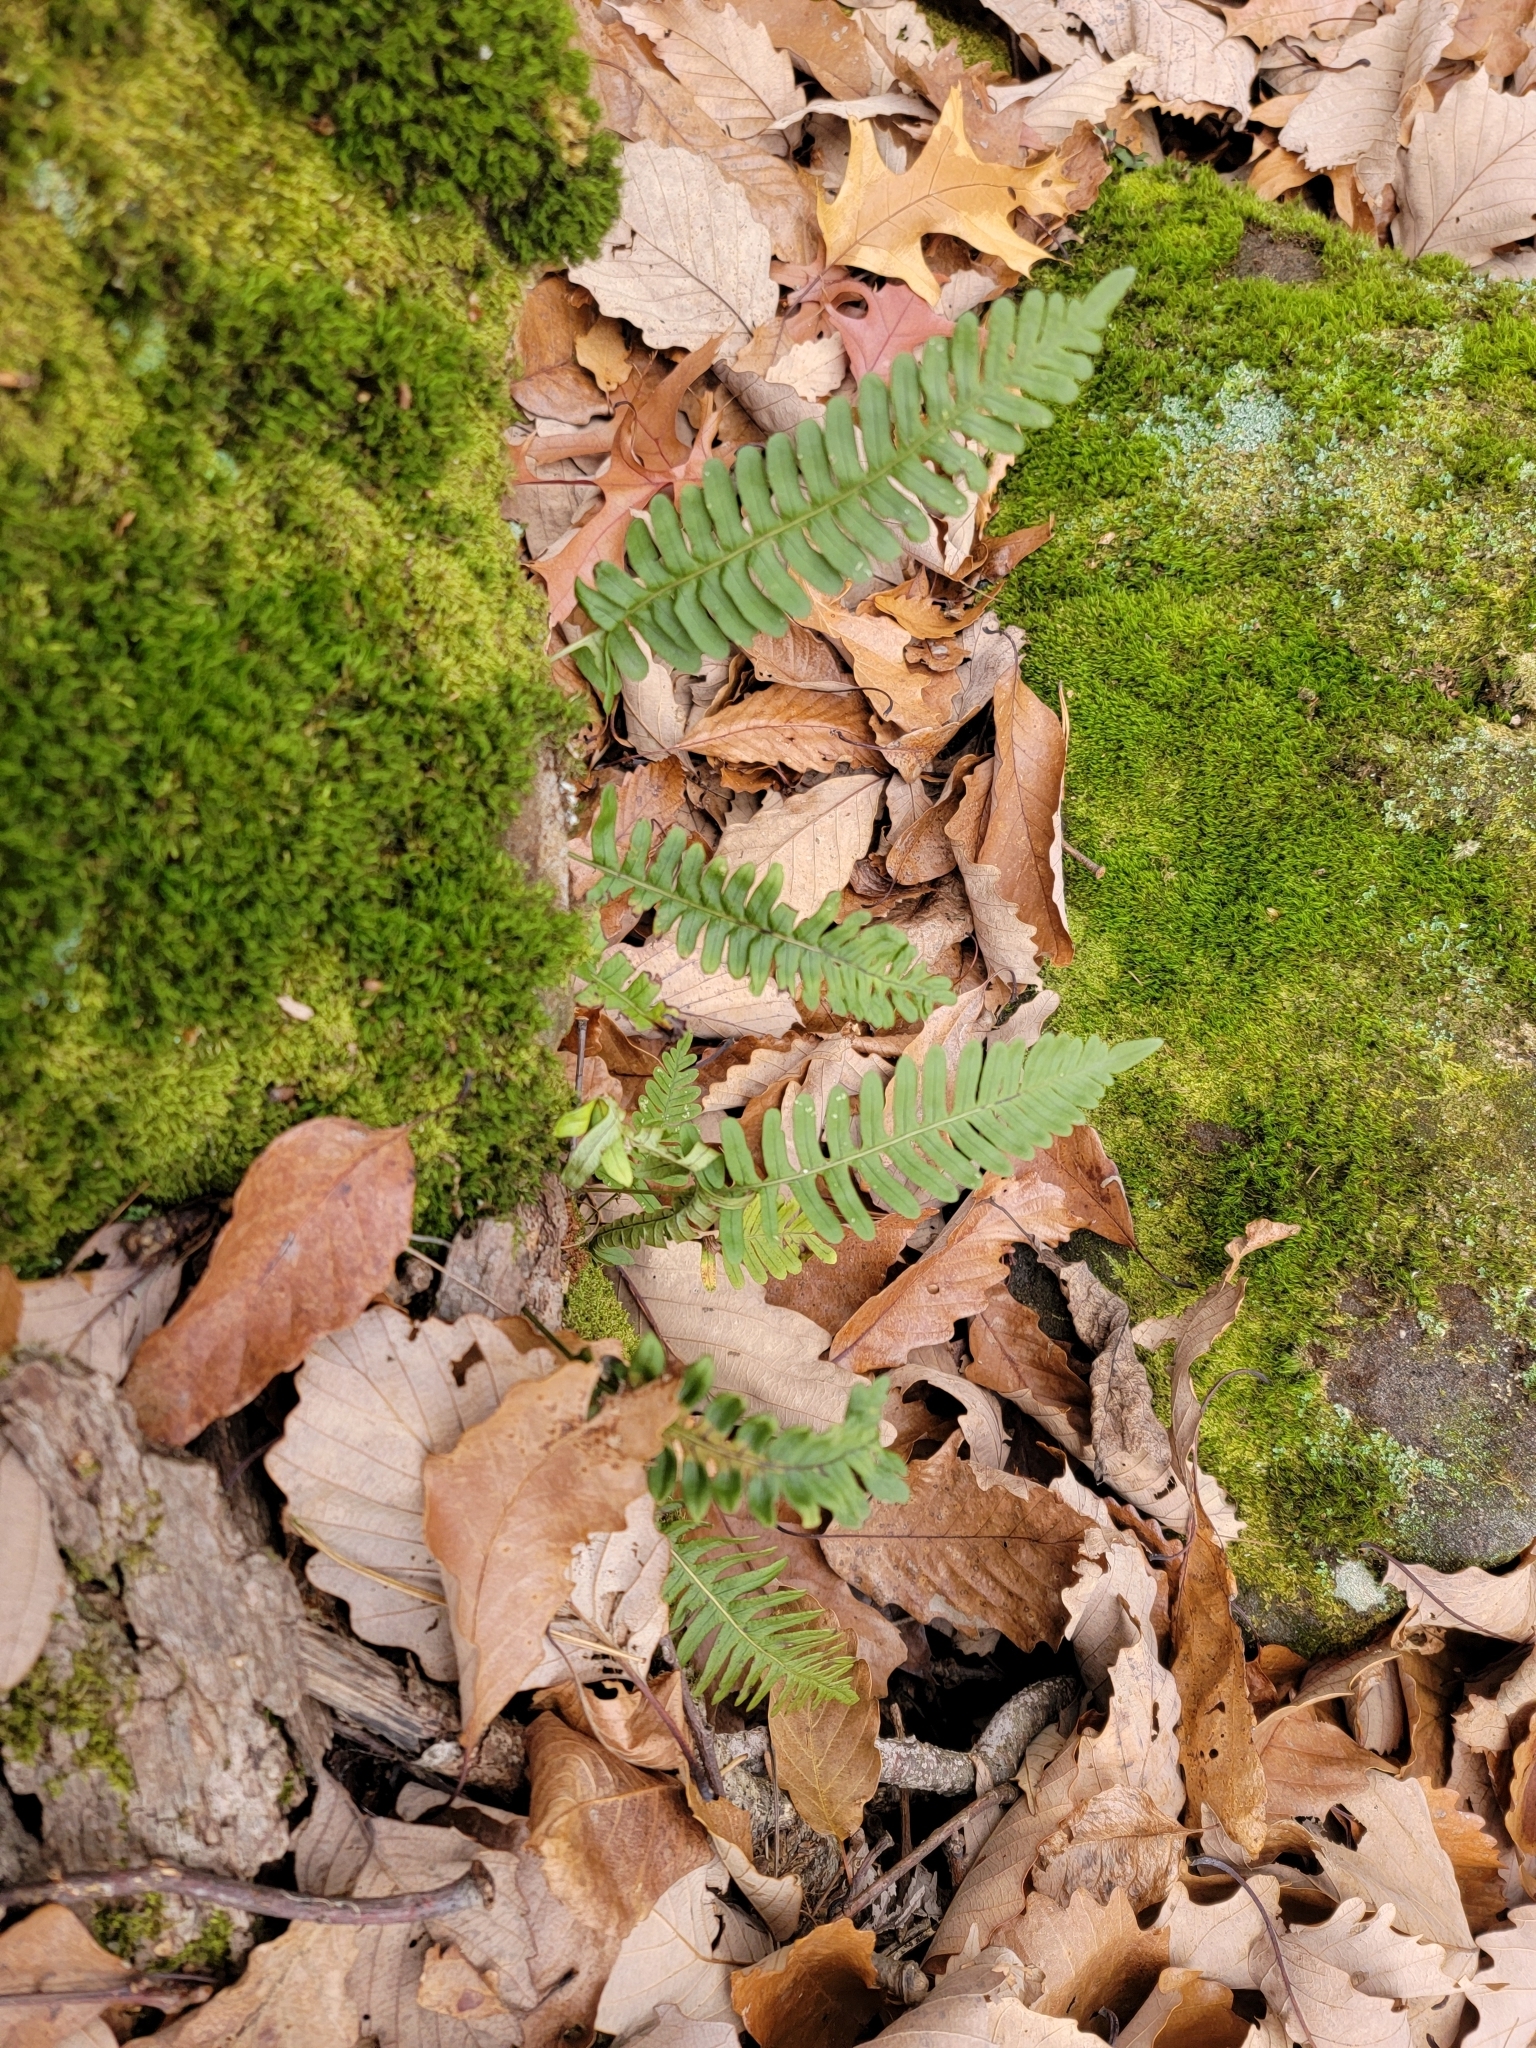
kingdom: Plantae
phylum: Tracheophyta
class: Polypodiopsida
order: Polypodiales
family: Polypodiaceae
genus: Polypodium
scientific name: Polypodium virginianum
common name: American wall fern
